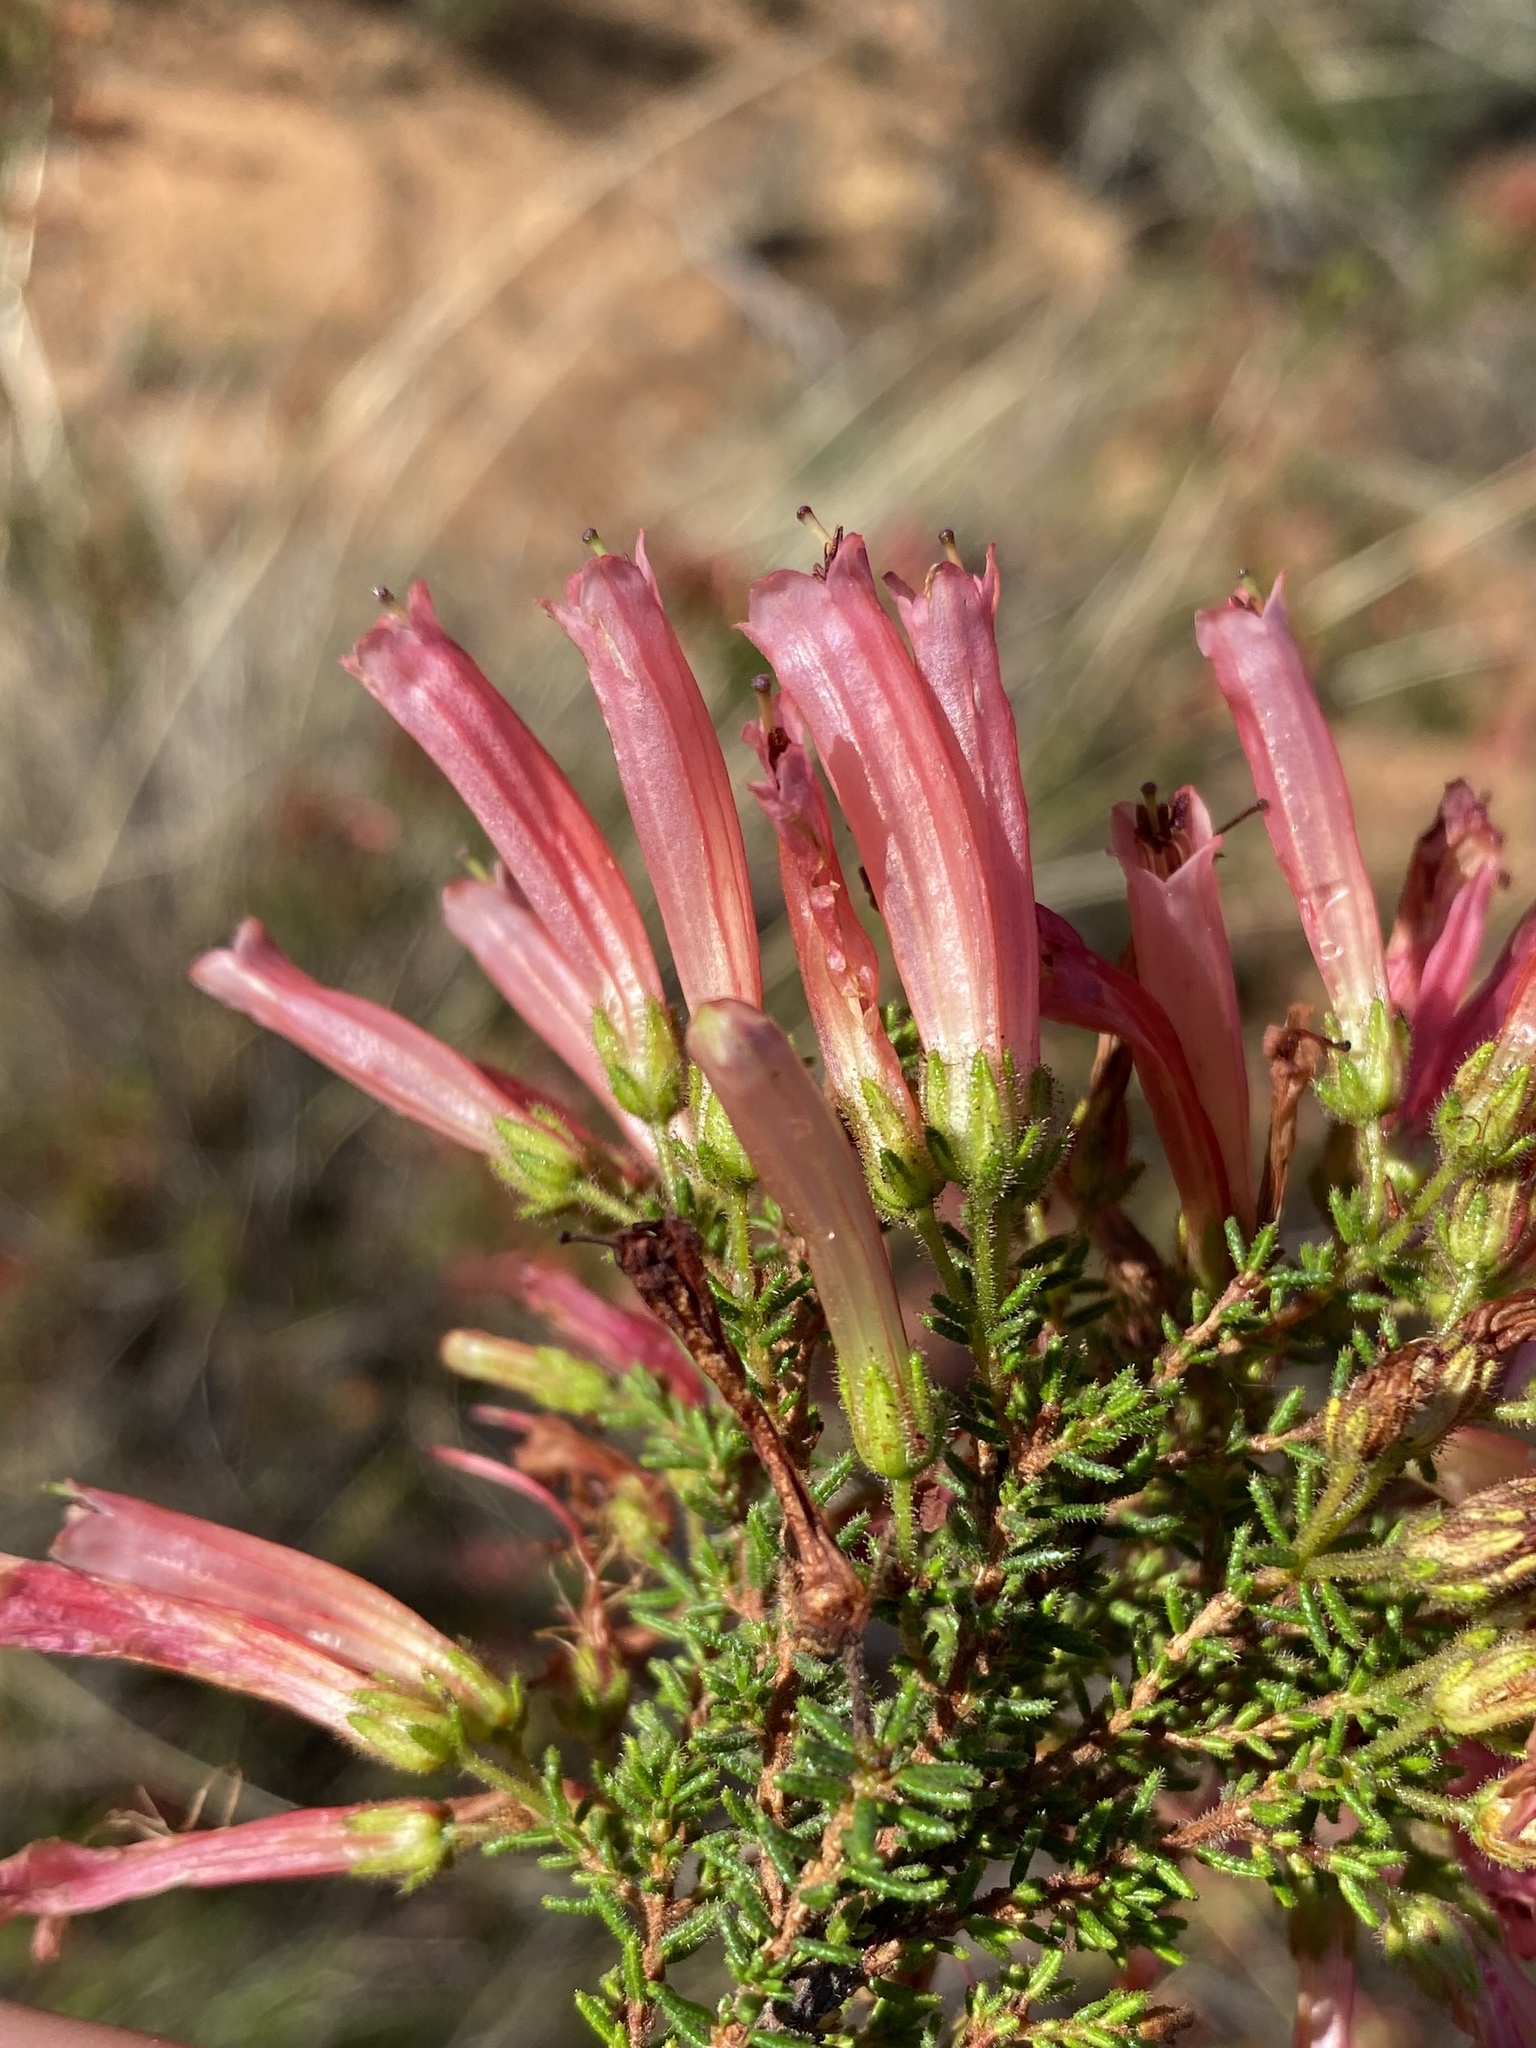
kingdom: Plantae
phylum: Tracheophyta
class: Magnoliopsida
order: Ericales
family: Ericaceae
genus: Erica
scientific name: Erica glandulosa
